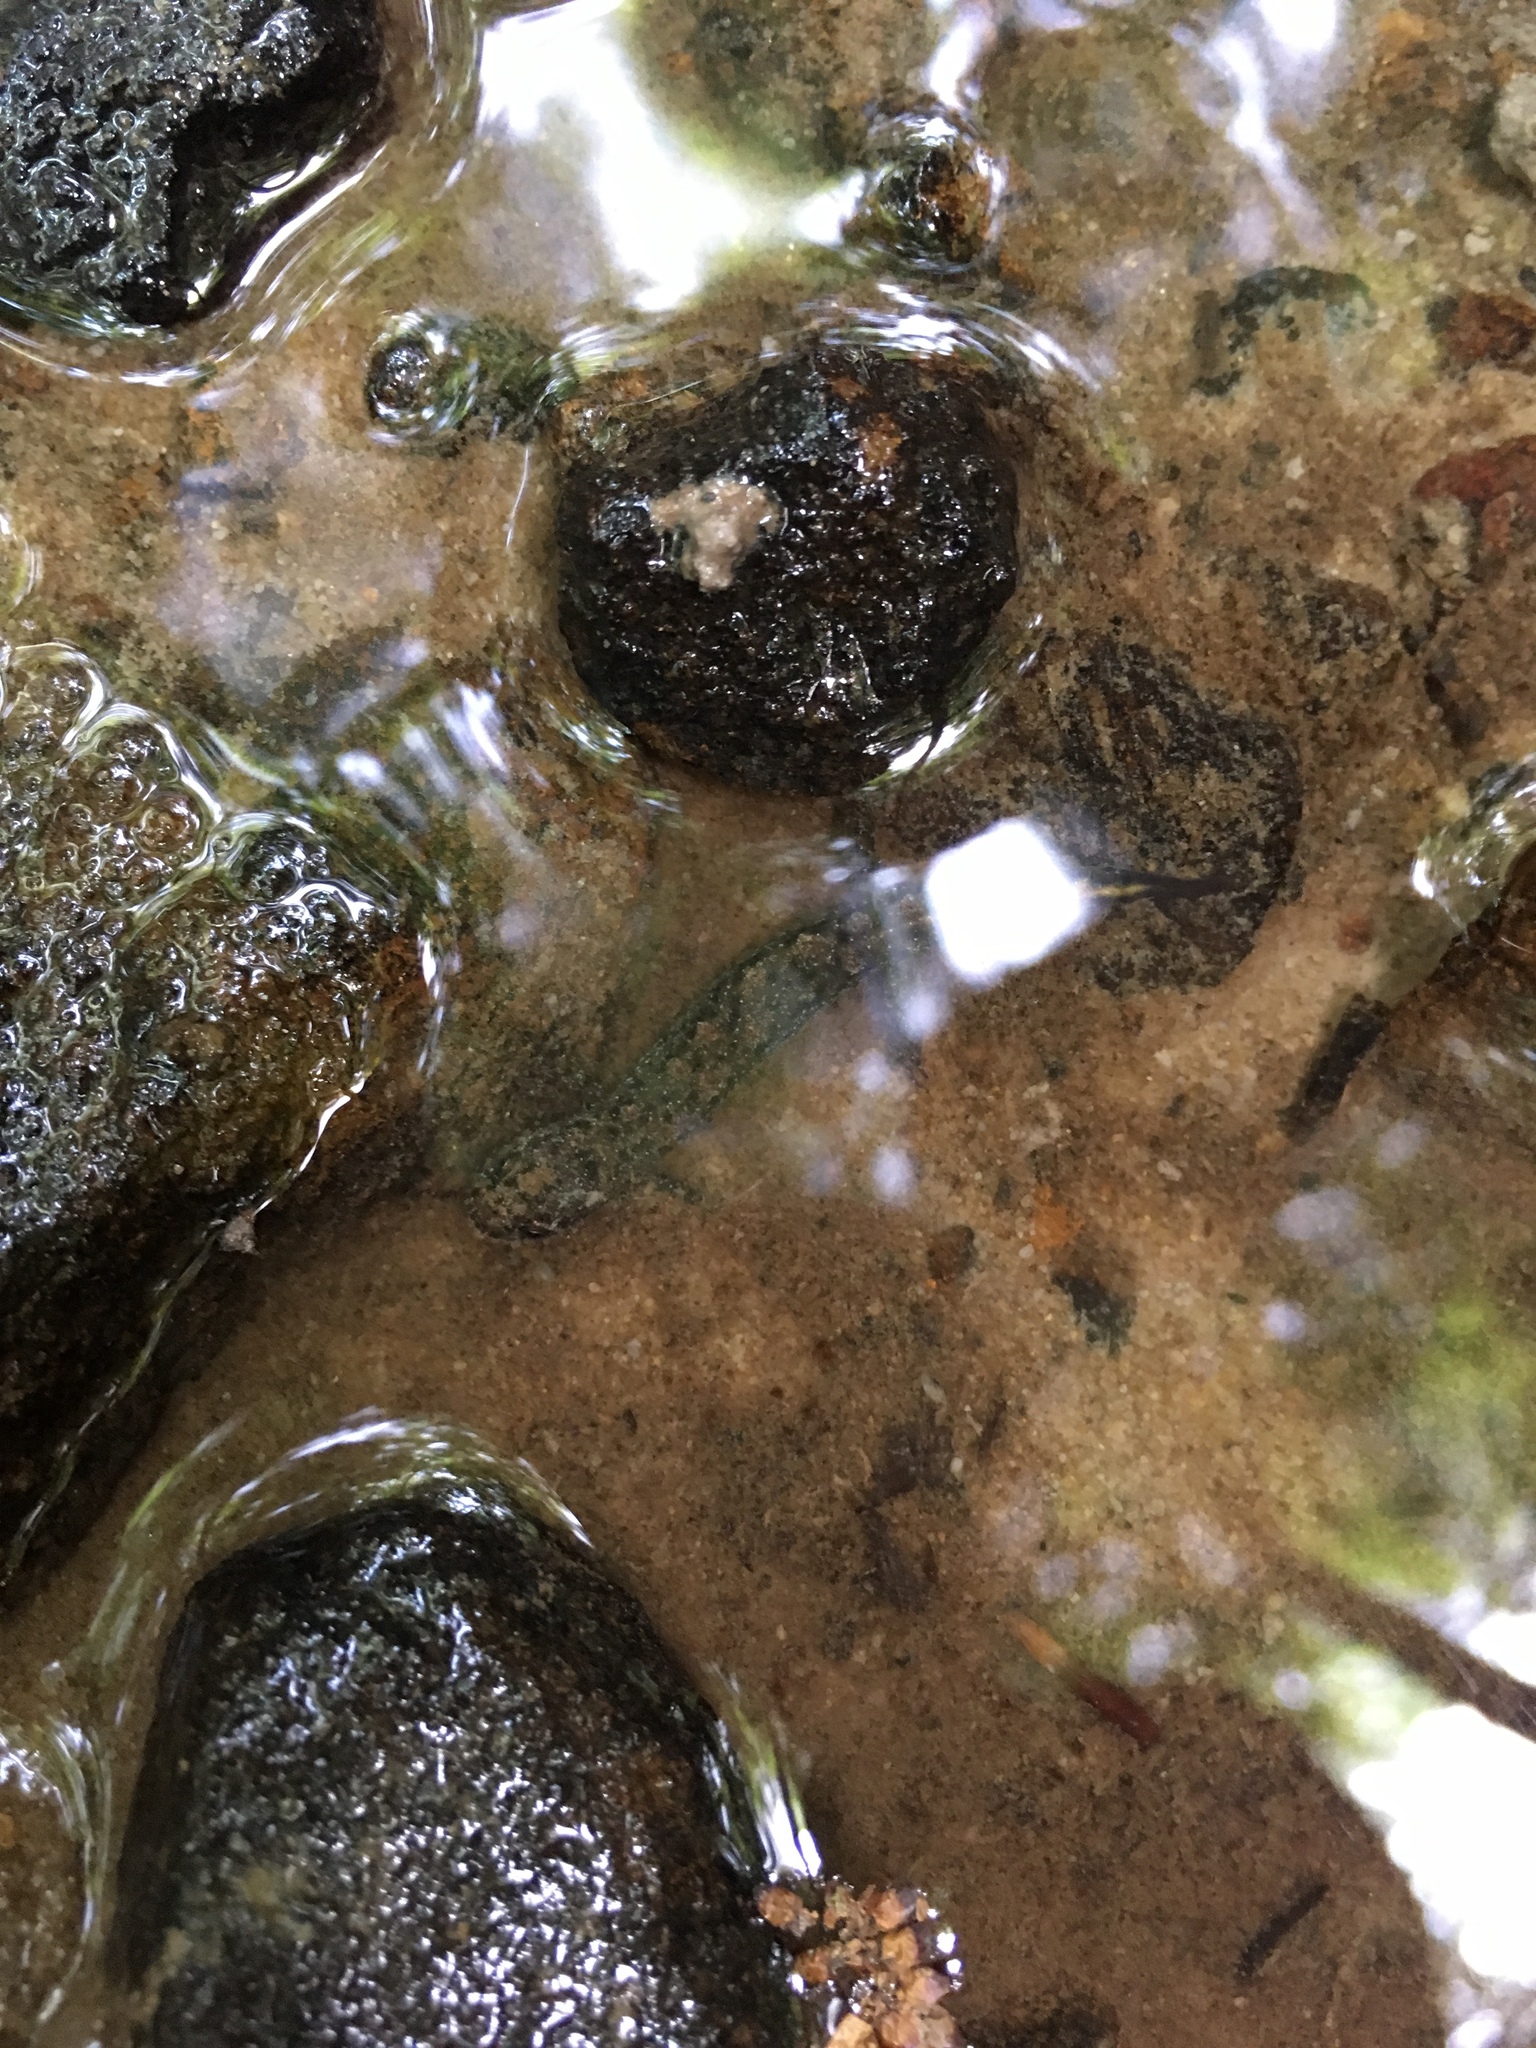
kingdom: Animalia
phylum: Chordata
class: Amphibia
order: Caudata
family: Plethodontidae
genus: Desmognathus
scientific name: Desmognathus fuscus
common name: Northern dusky salamander
